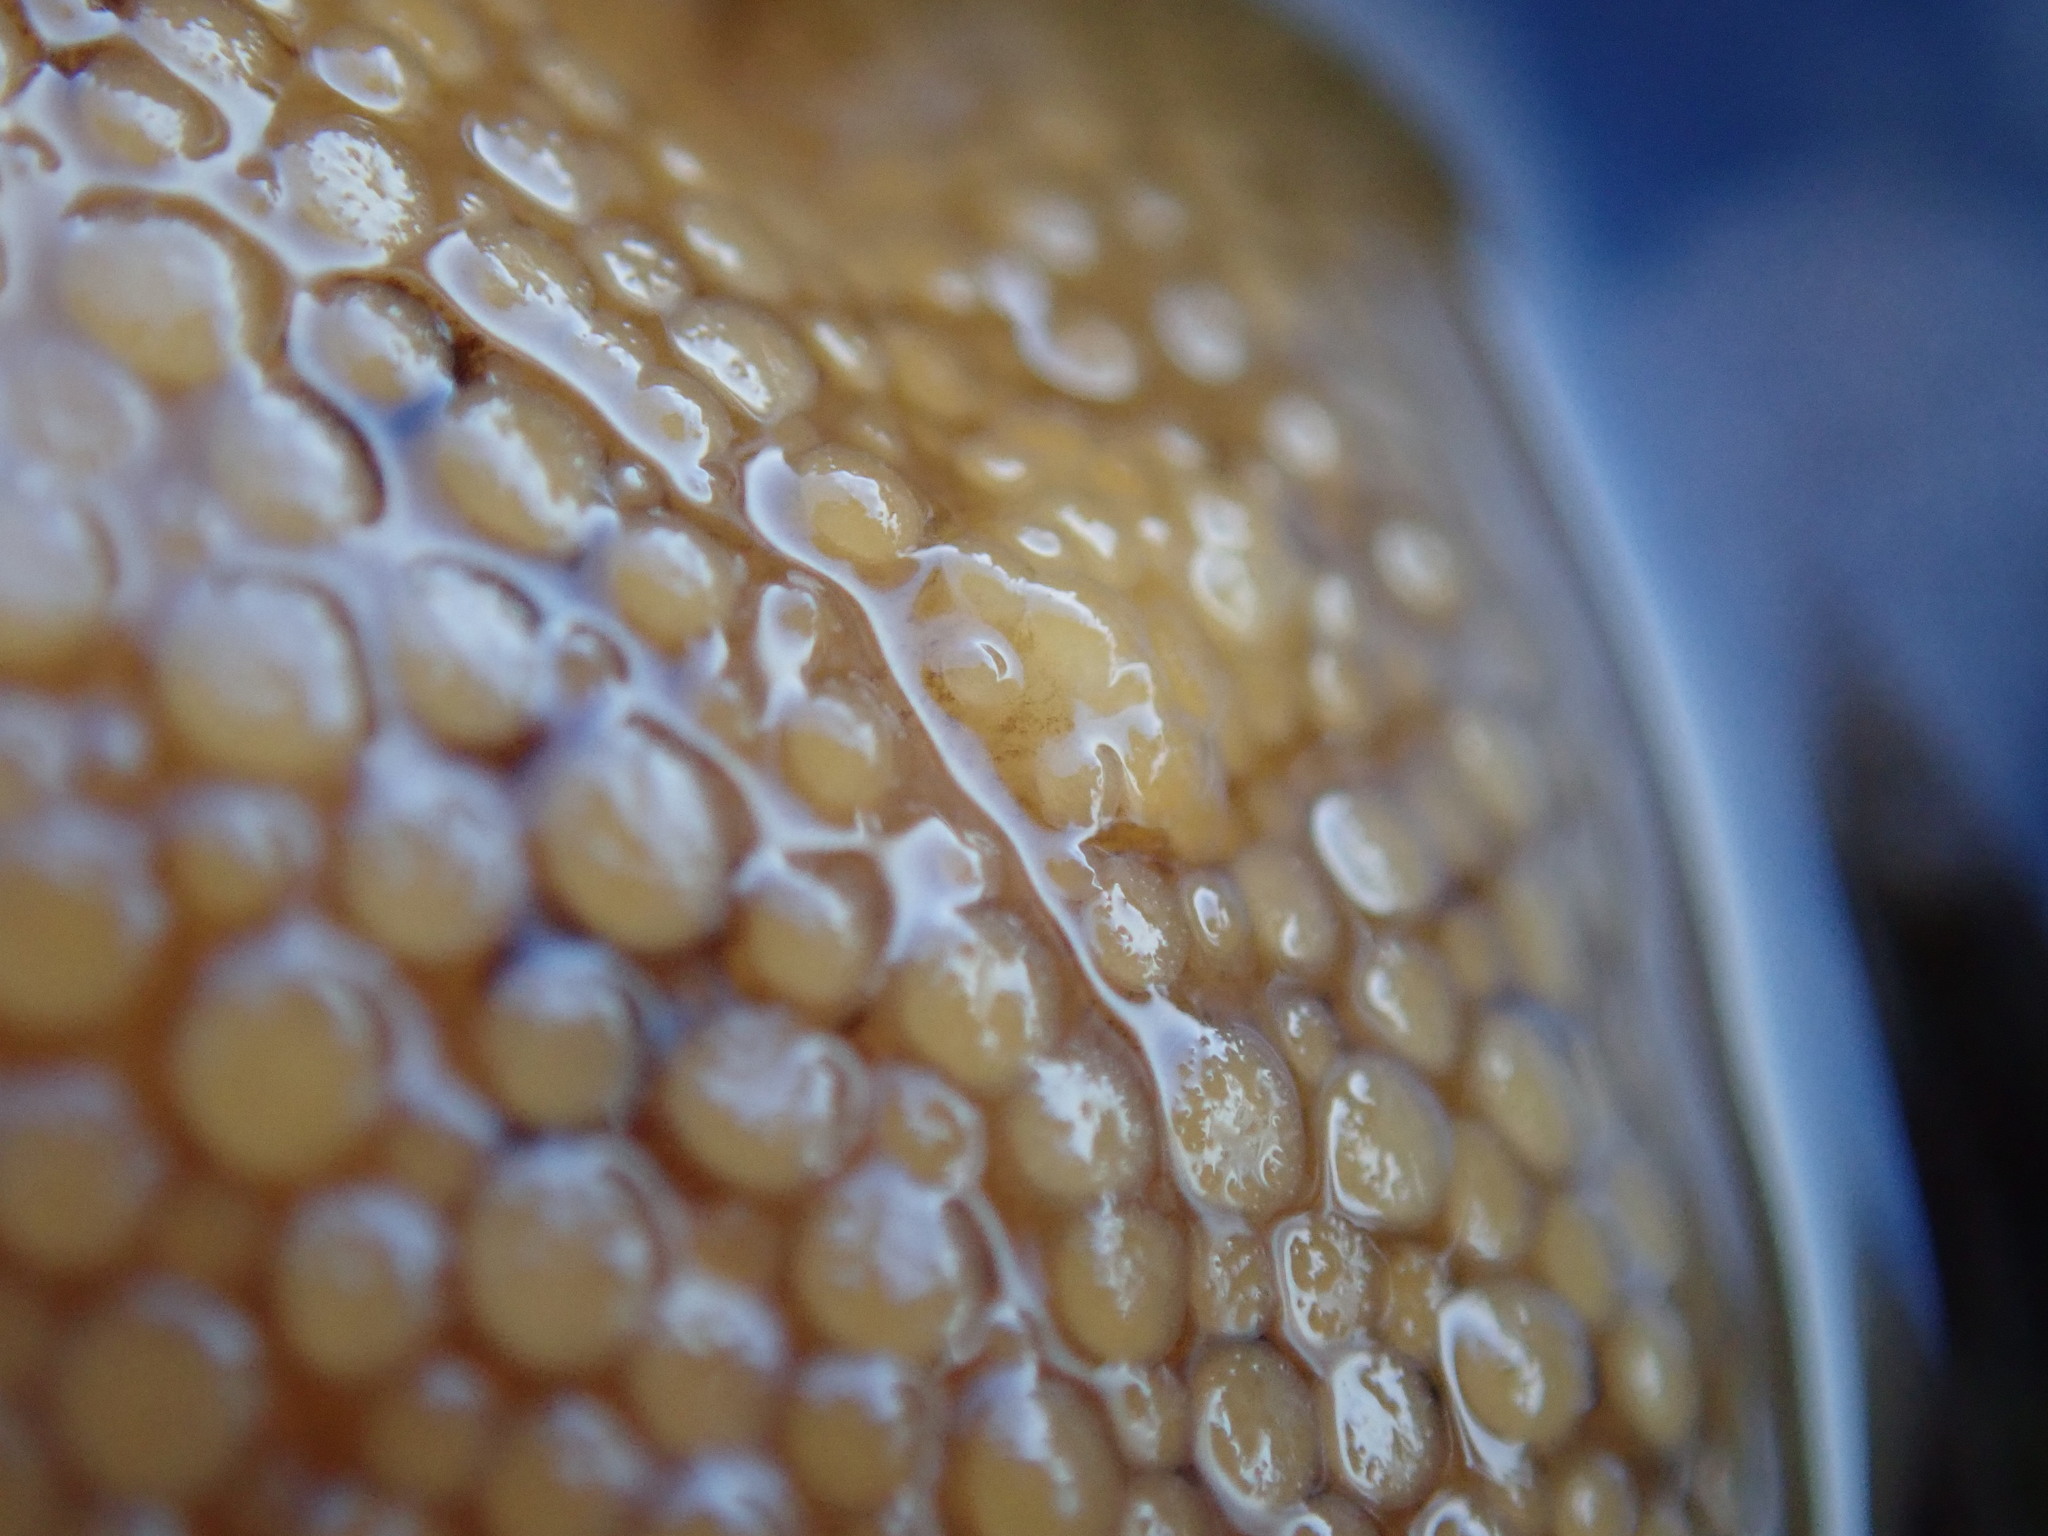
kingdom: Animalia
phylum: Mollusca
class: Gastropoda
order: Nudibranchia
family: Discodorididae
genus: Peltodoris
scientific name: Peltodoris nobilis
